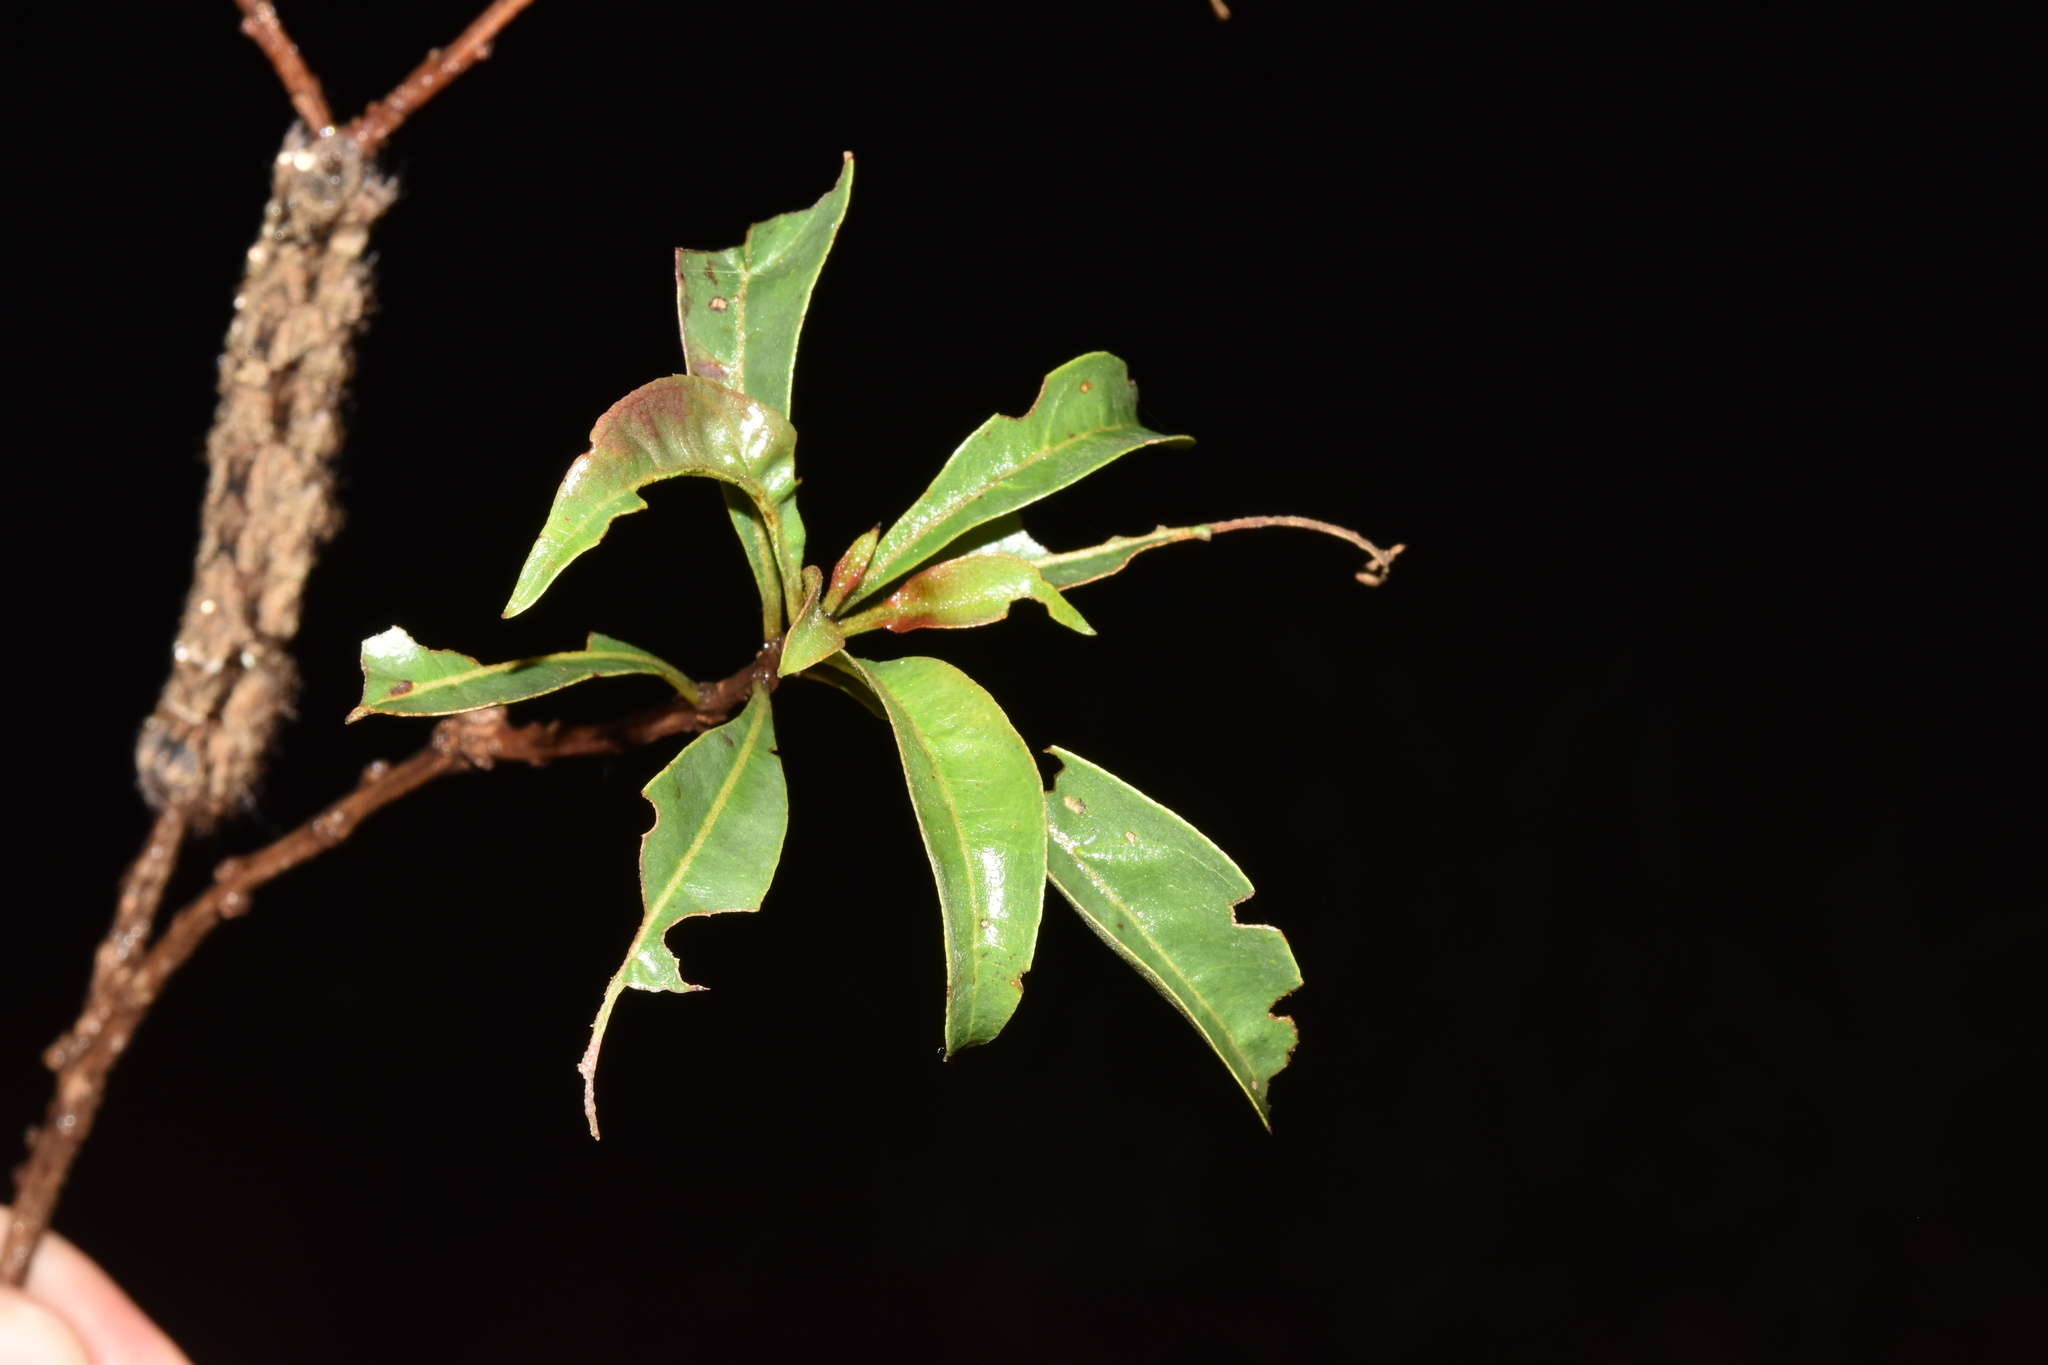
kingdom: Plantae
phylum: Tracheophyta
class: Magnoliopsida
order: Myrtales
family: Myrtaceae
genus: Heteropyxis
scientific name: Heteropyxis natalensis
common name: Lavender tree
